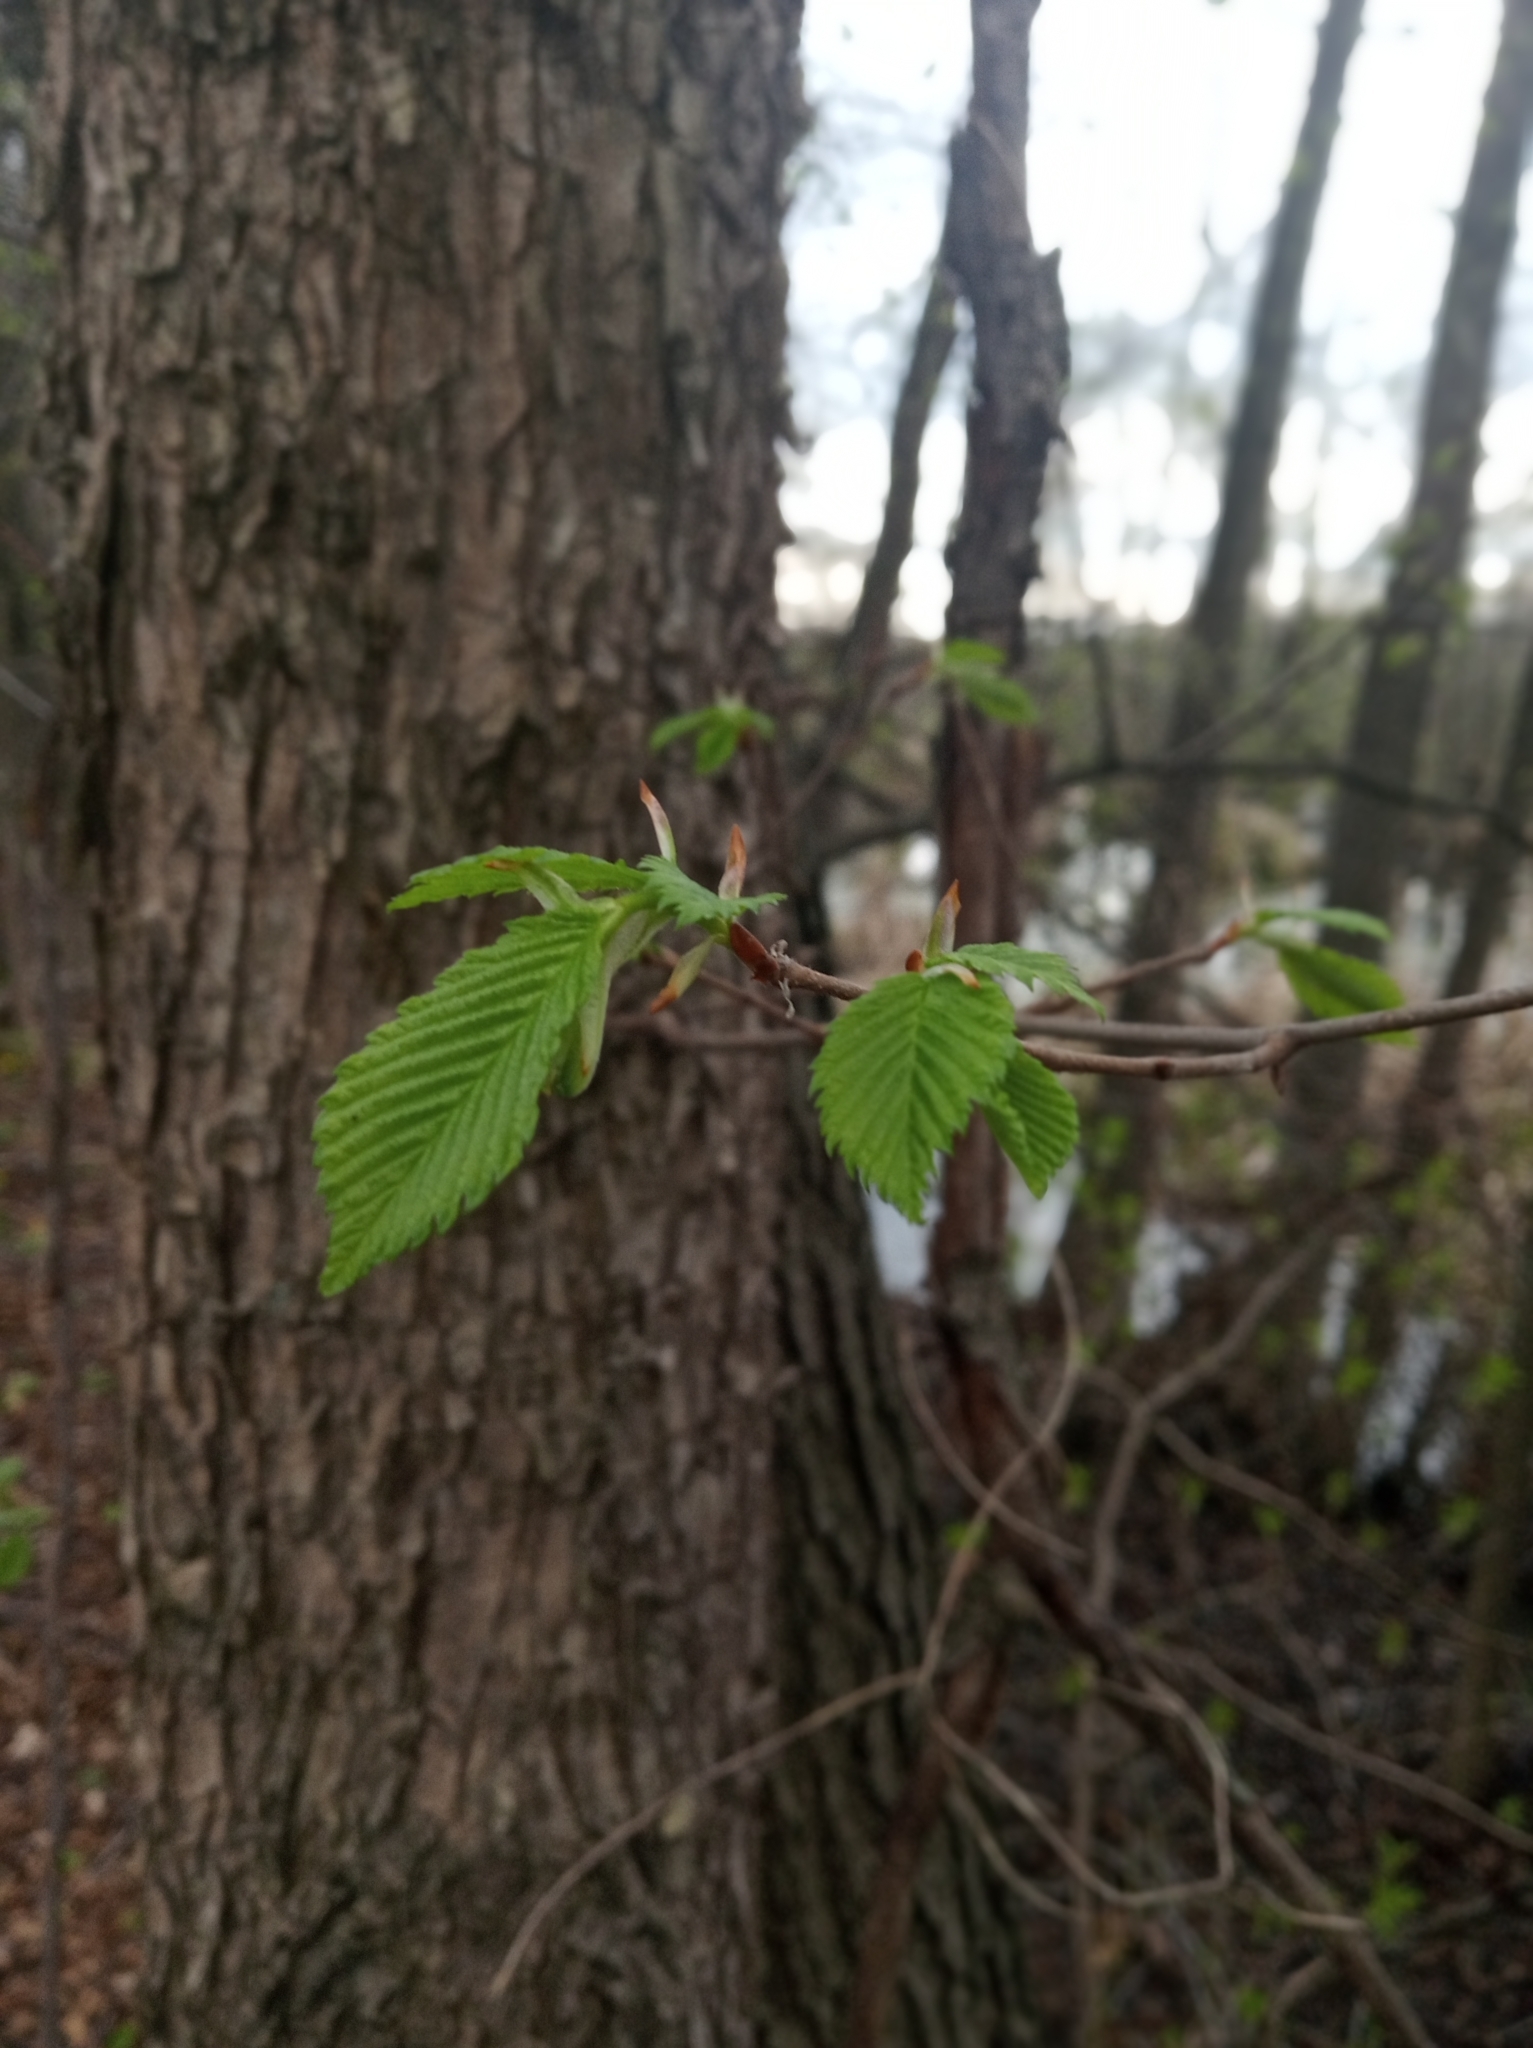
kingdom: Plantae
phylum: Tracheophyta
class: Magnoliopsida
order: Fagales
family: Betulaceae
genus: Alnus
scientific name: Alnus glutinosa
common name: Black alder
